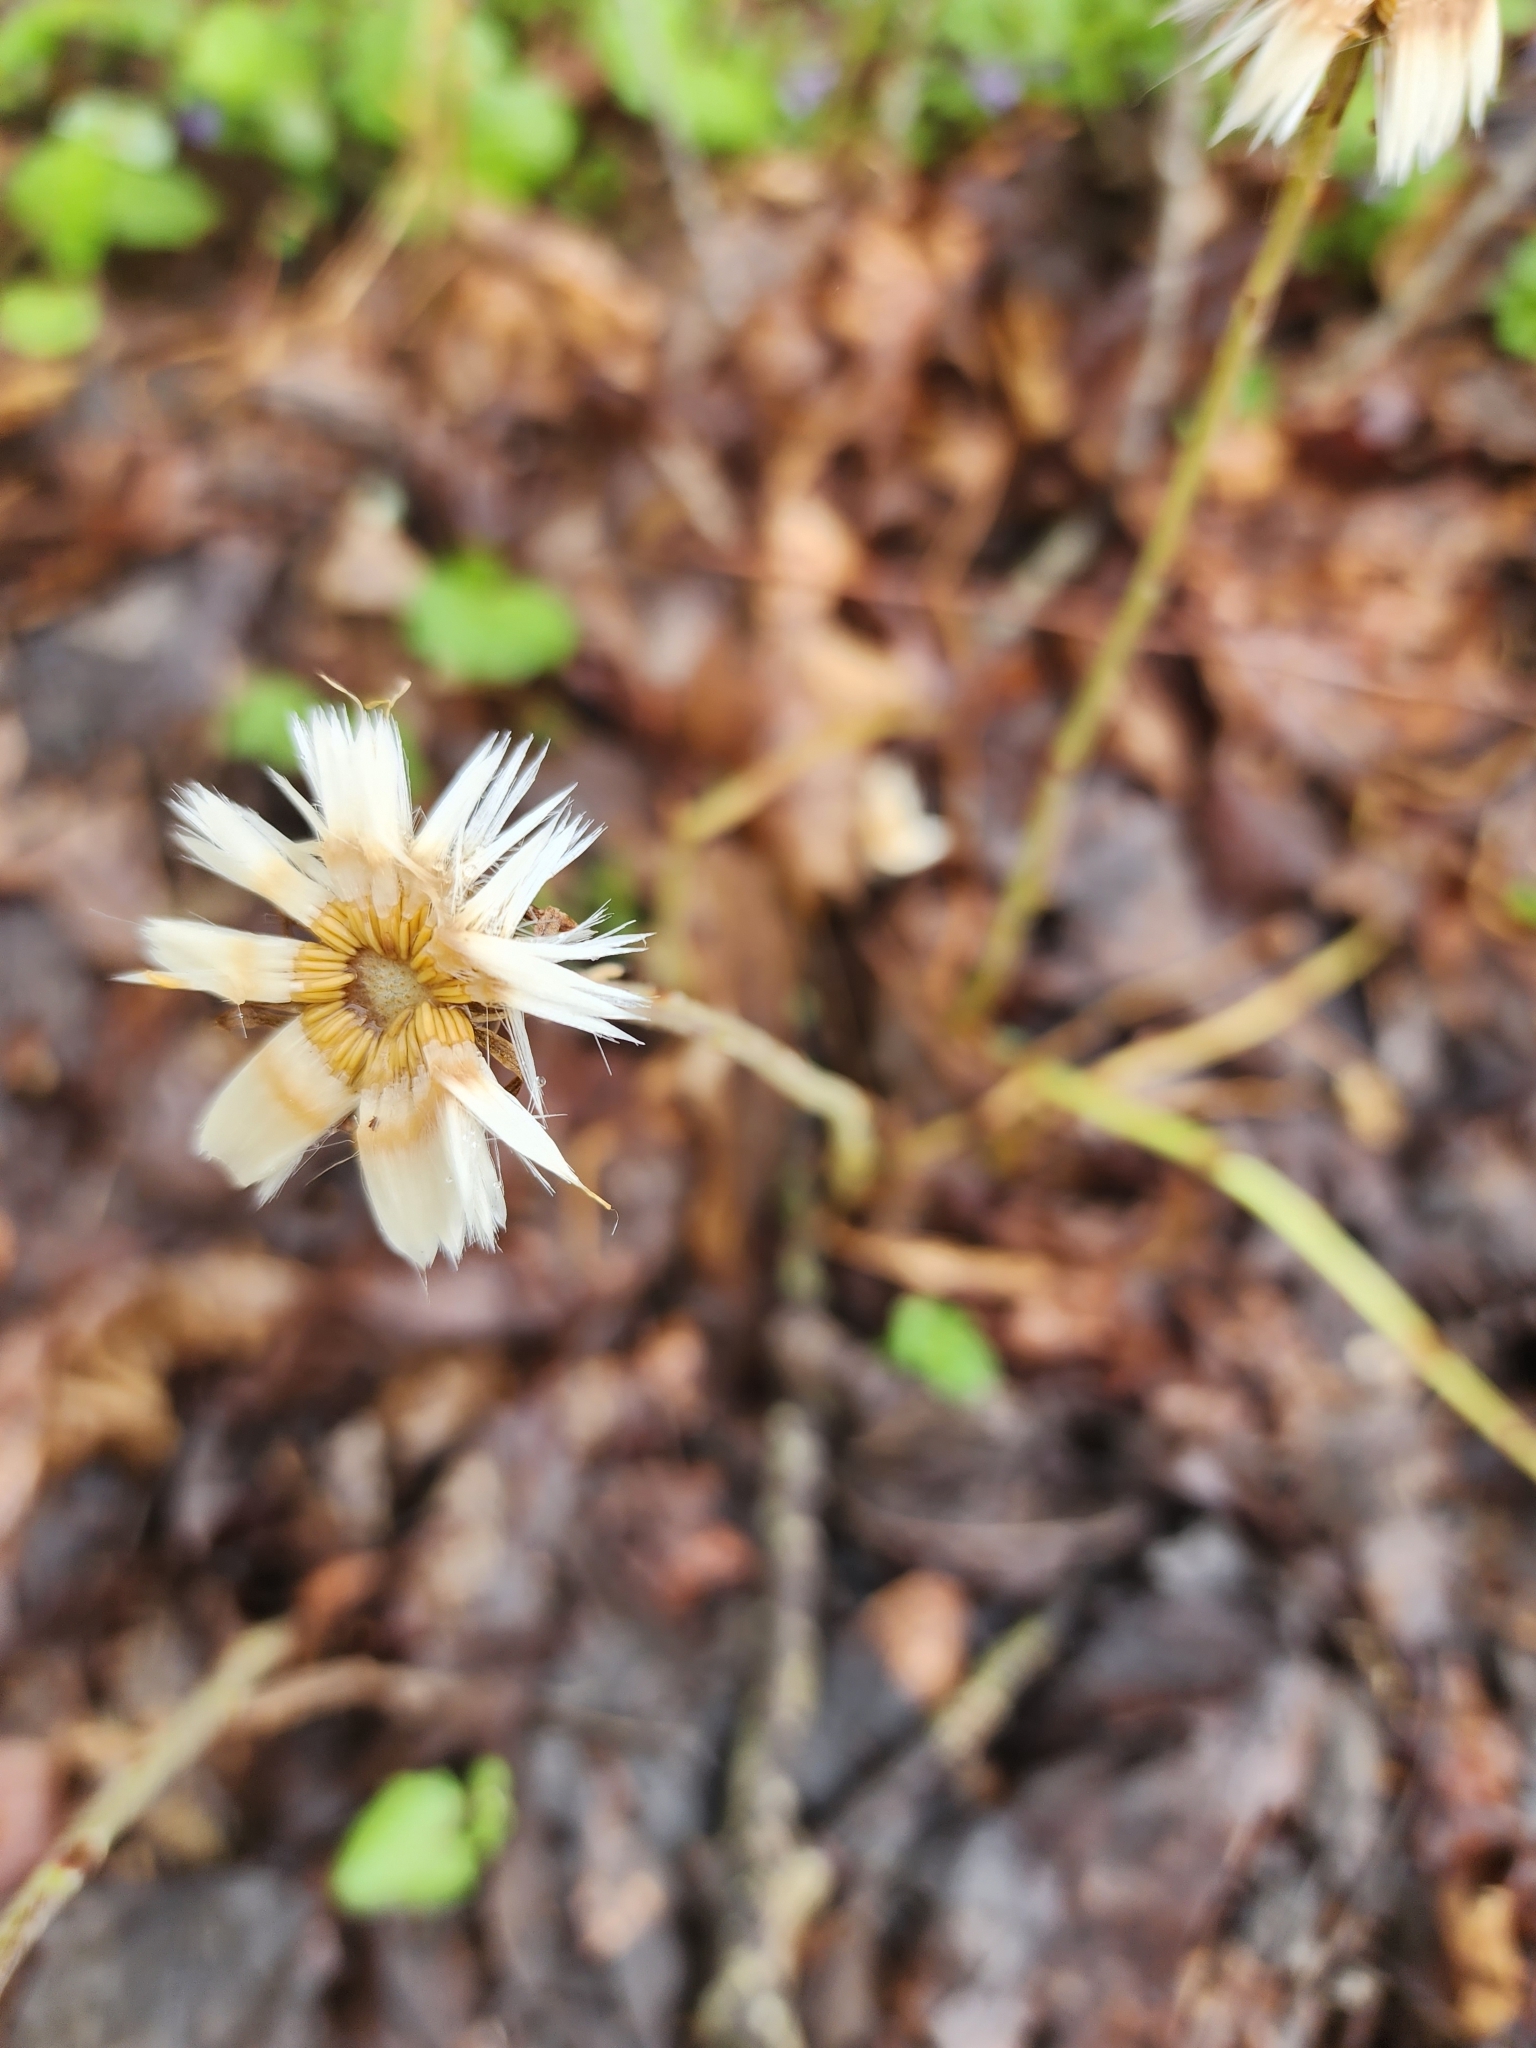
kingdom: Plantae
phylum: Tracheophyta
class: Magnoliopsida
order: Asterales
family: Asteraceae
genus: Tussilago
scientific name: Tussilago farfara
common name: Coltsfoot
